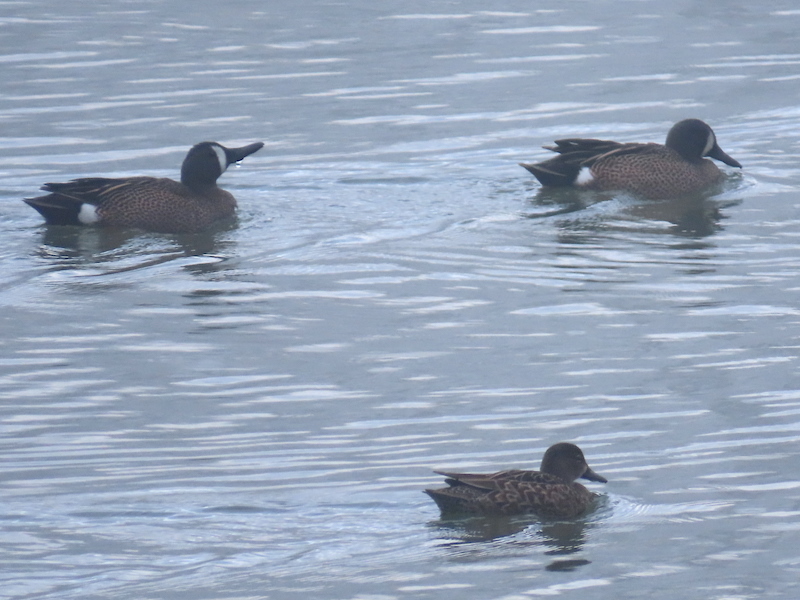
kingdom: Animalia
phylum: Chordata
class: Aves
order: Anseriformes
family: Anatidae
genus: Spatula
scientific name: Spatula discors
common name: Blue-winged teal
